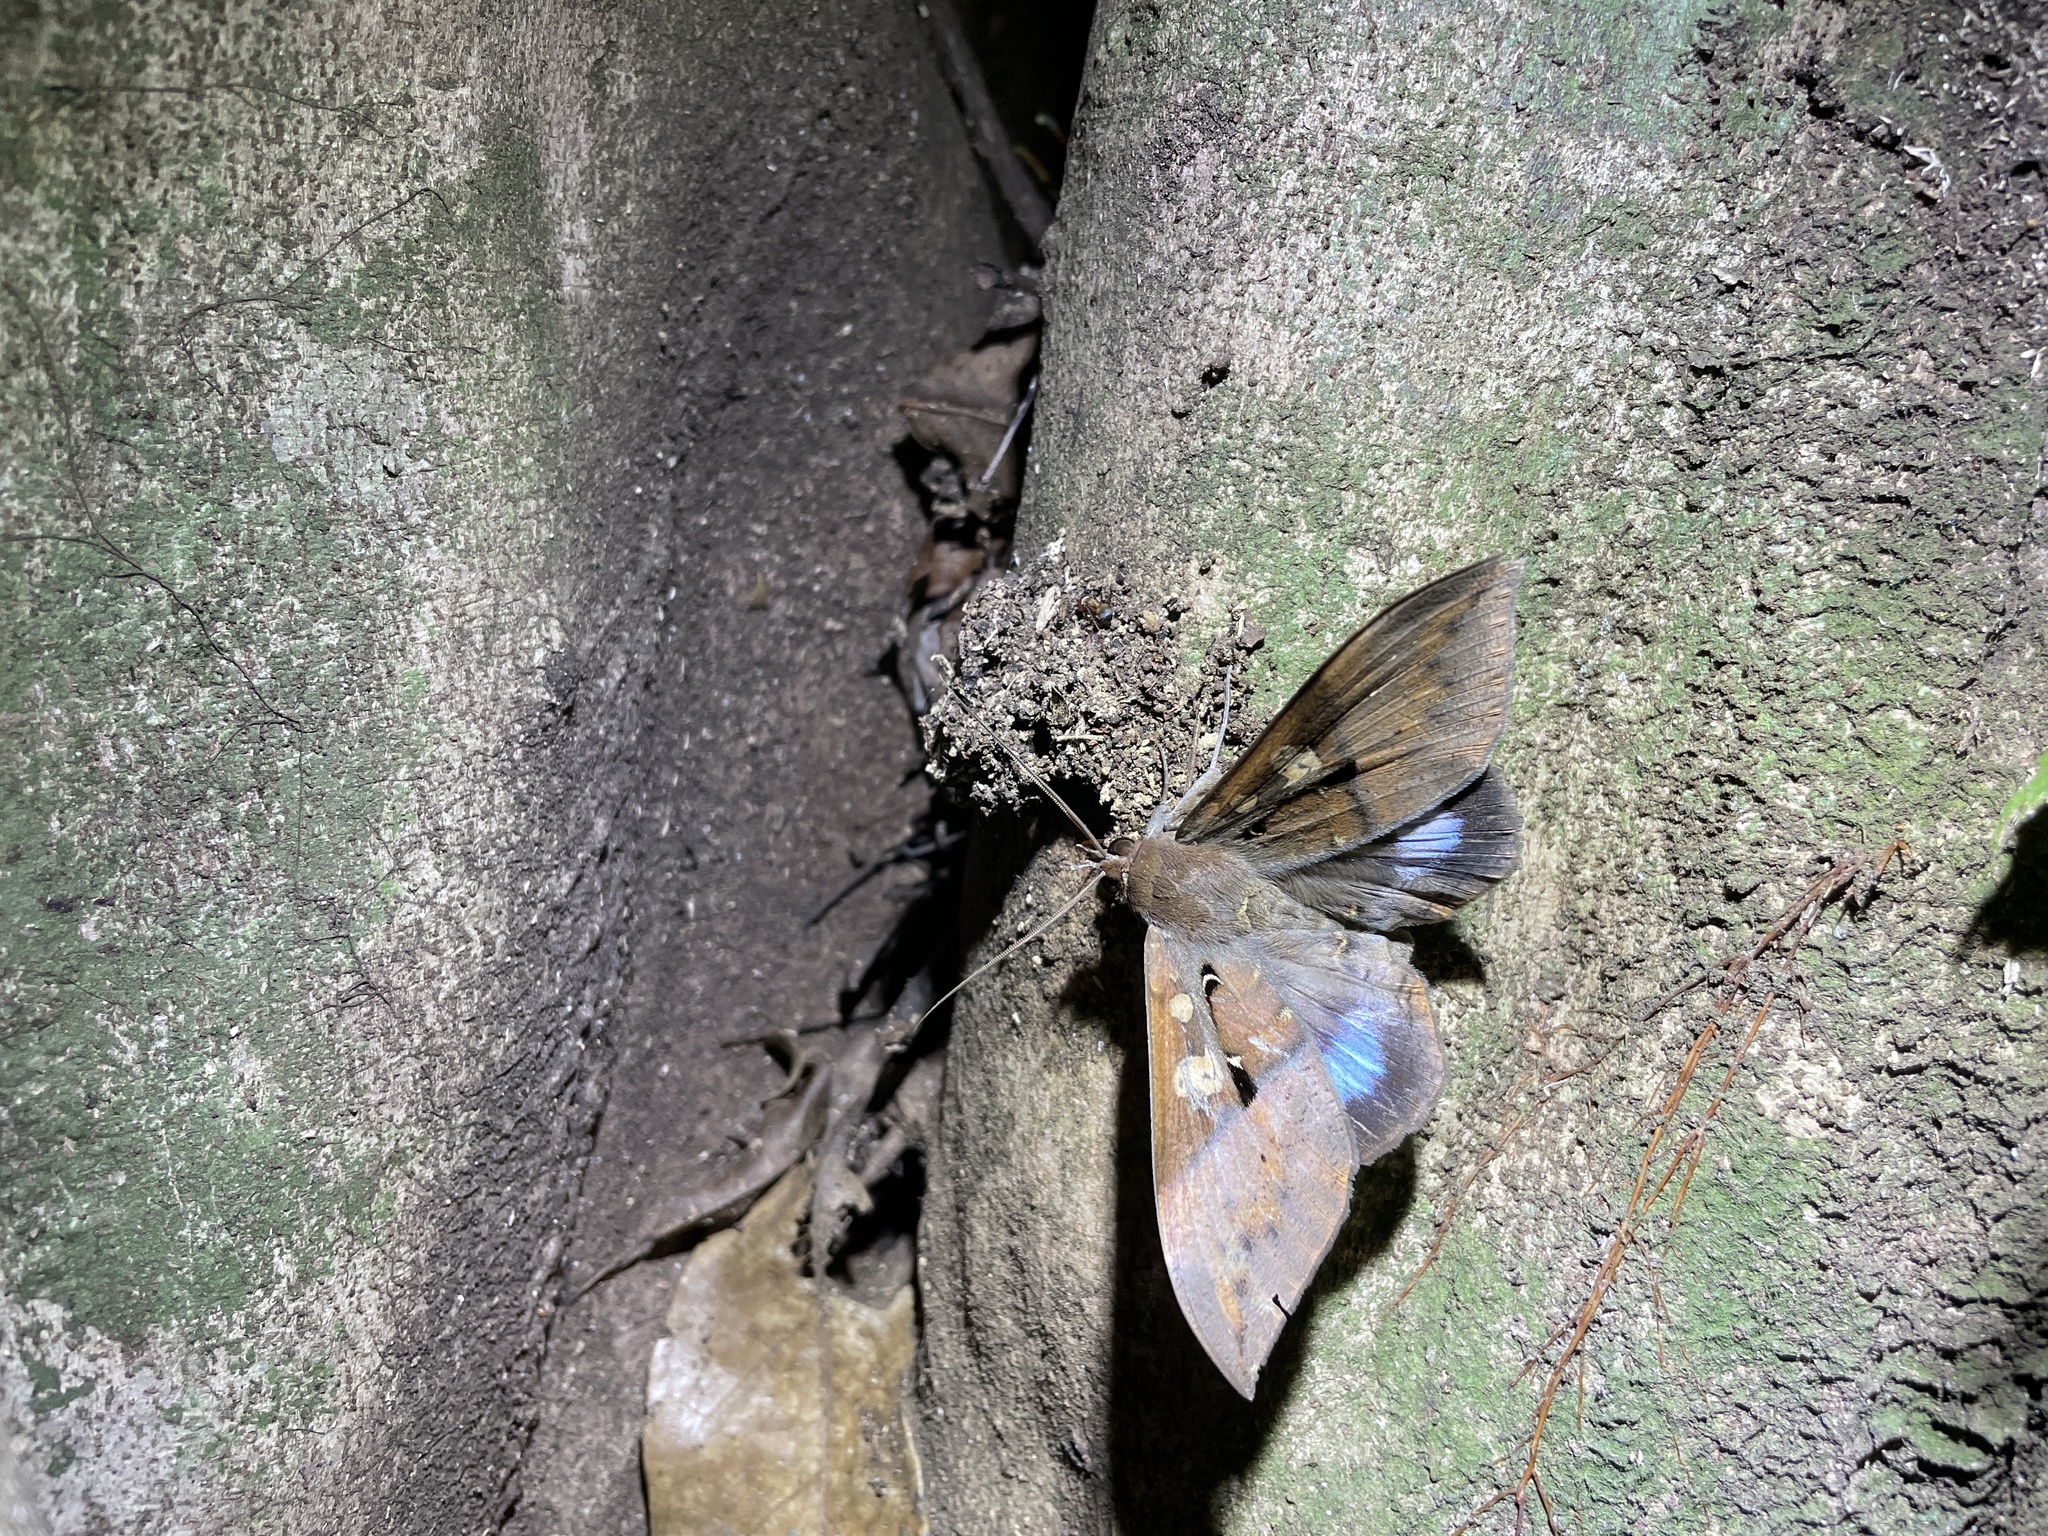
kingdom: Animalia
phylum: Arthropoda
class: Insecta
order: Lepidoptera
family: Erebidae
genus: Ischyja
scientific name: Ischyja manlia
